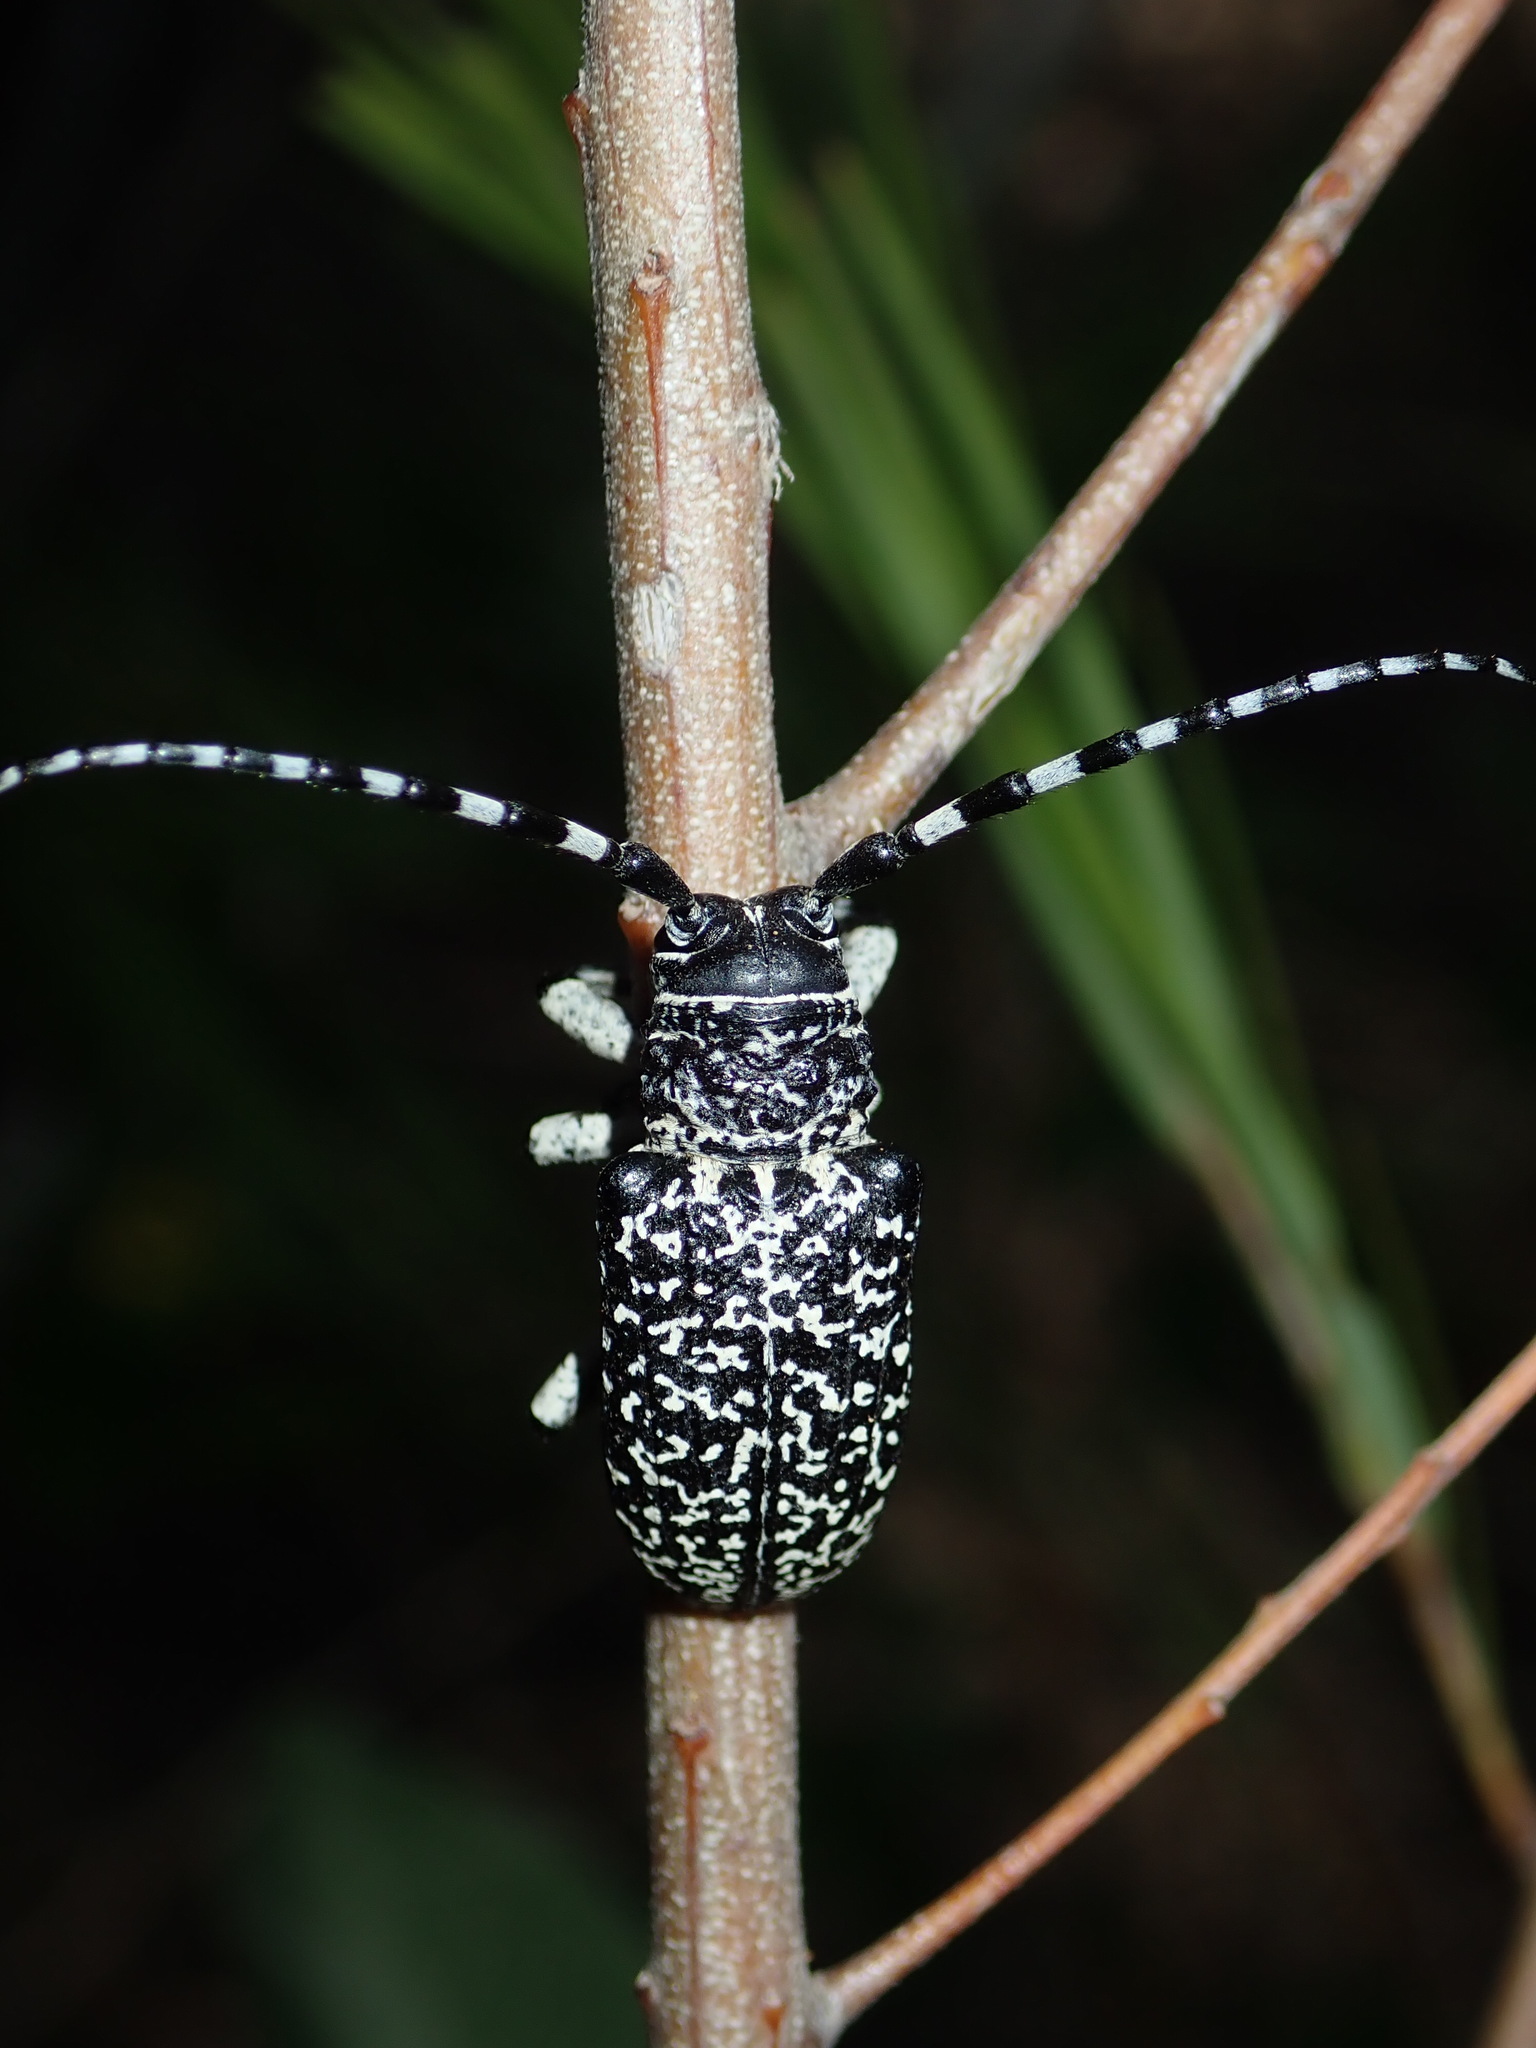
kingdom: Animalia
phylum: Arthropoda
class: Insecta
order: Coleoptera
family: Cerambycidae
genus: Rhytiphora
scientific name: Rhytiphora vermicularia
